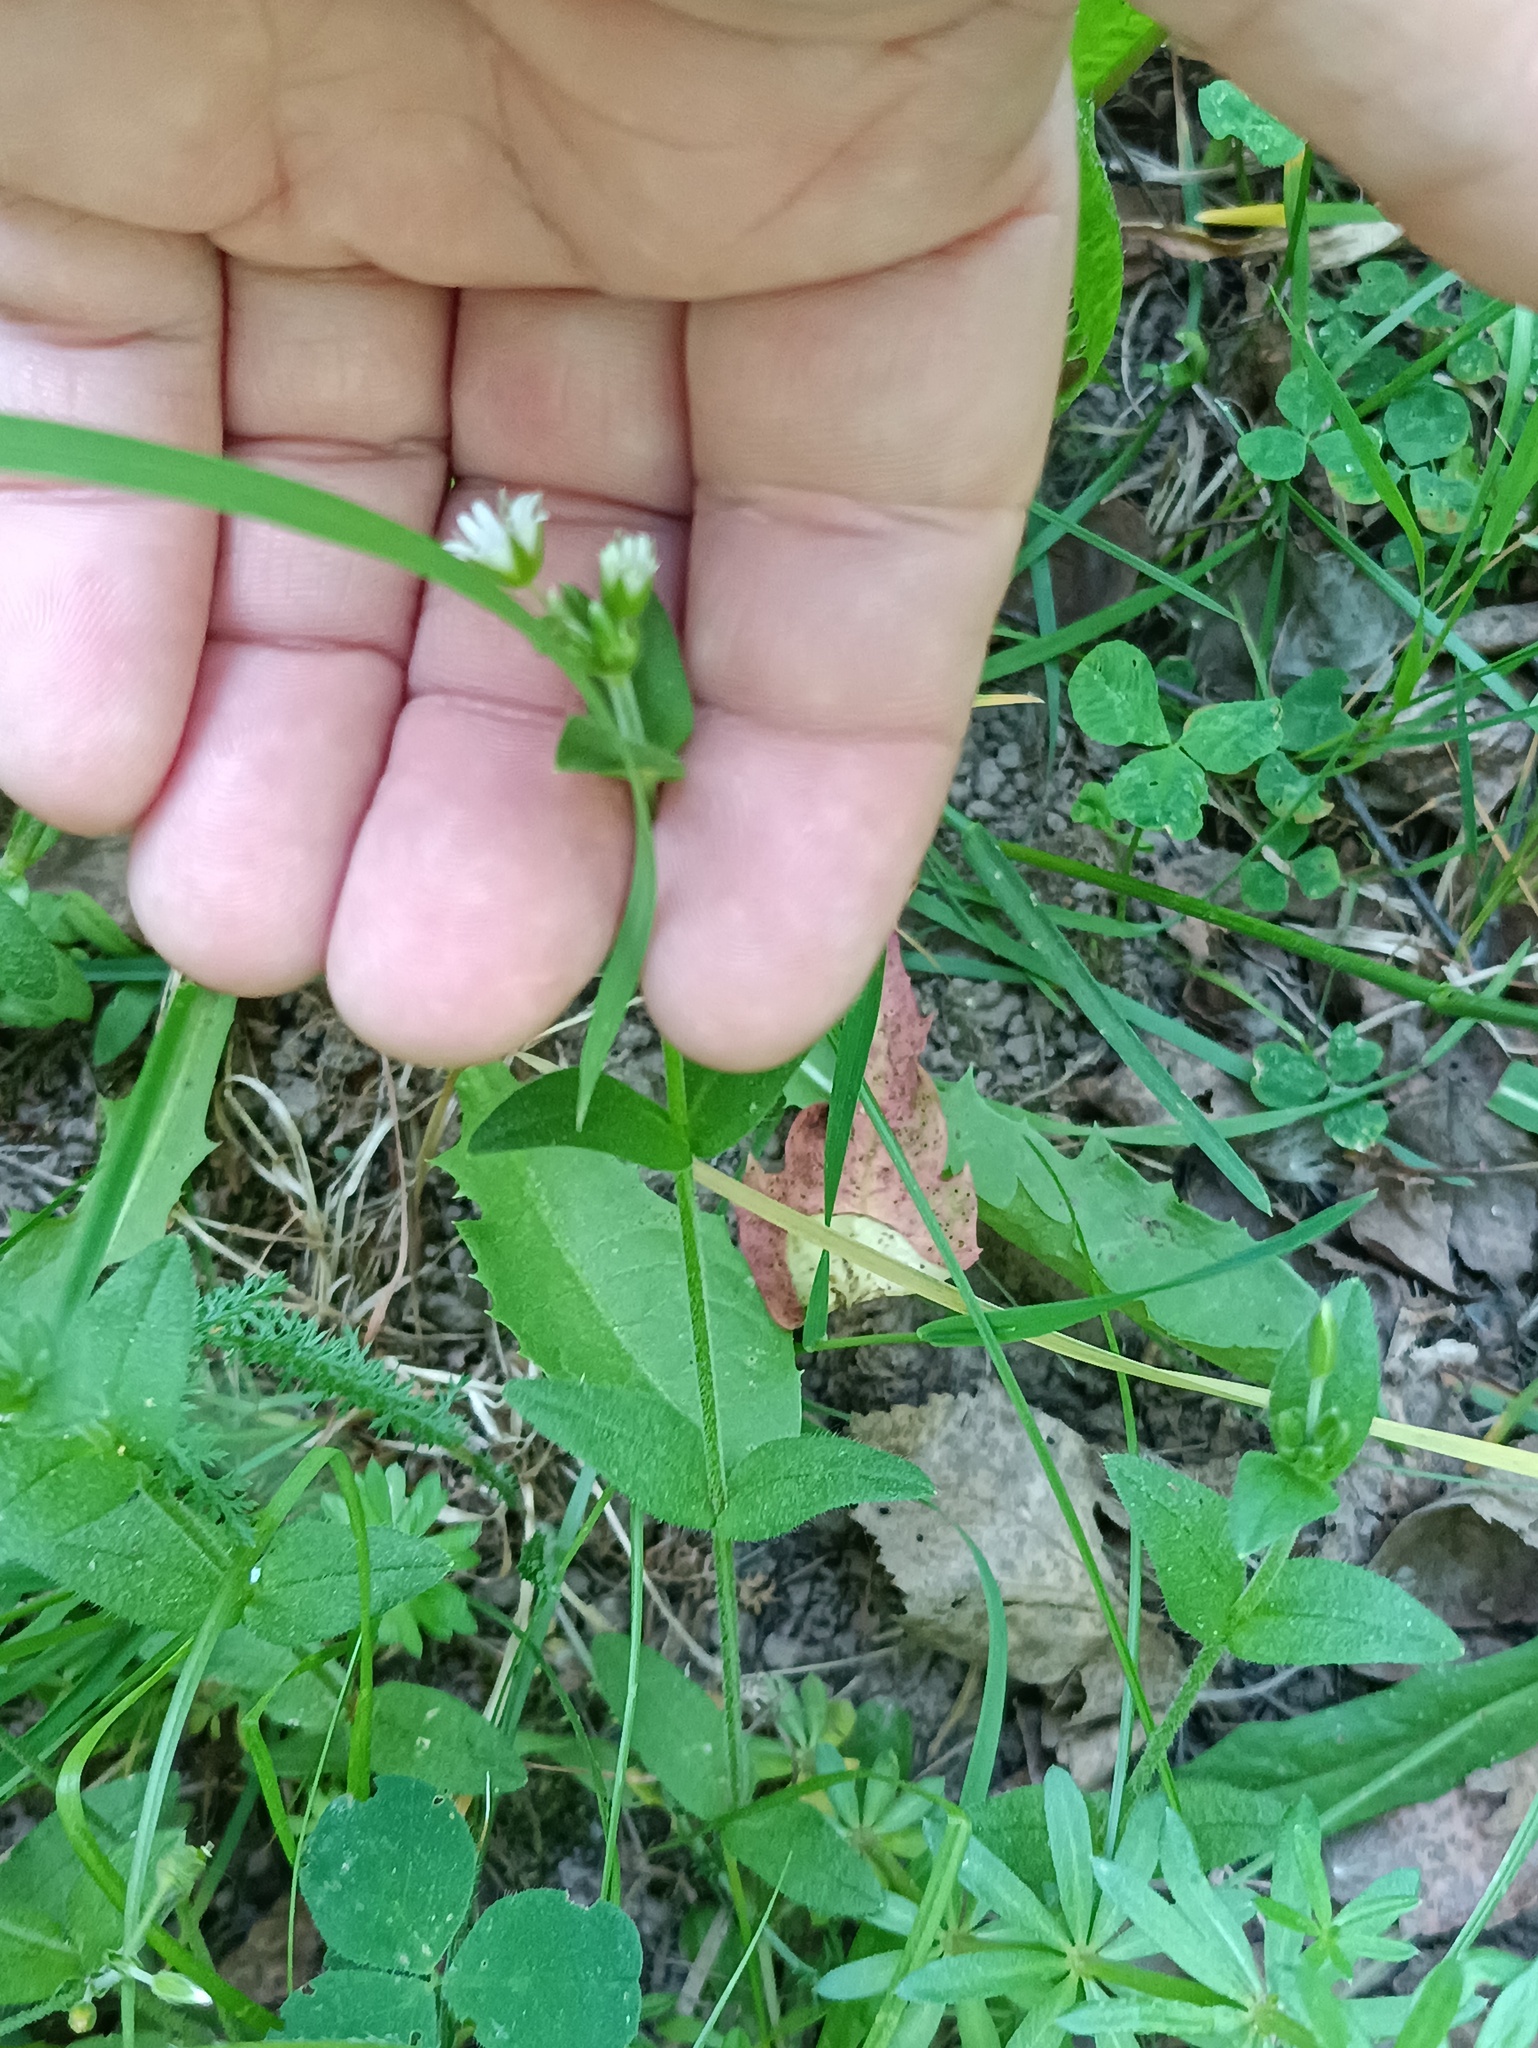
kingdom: Plantae
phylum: Tracheophyta
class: Magnoliopsida
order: Caryophyllales
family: Caryophyllaceae
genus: Cerastium
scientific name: Cerastium holosteoides
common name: Big chickweed
